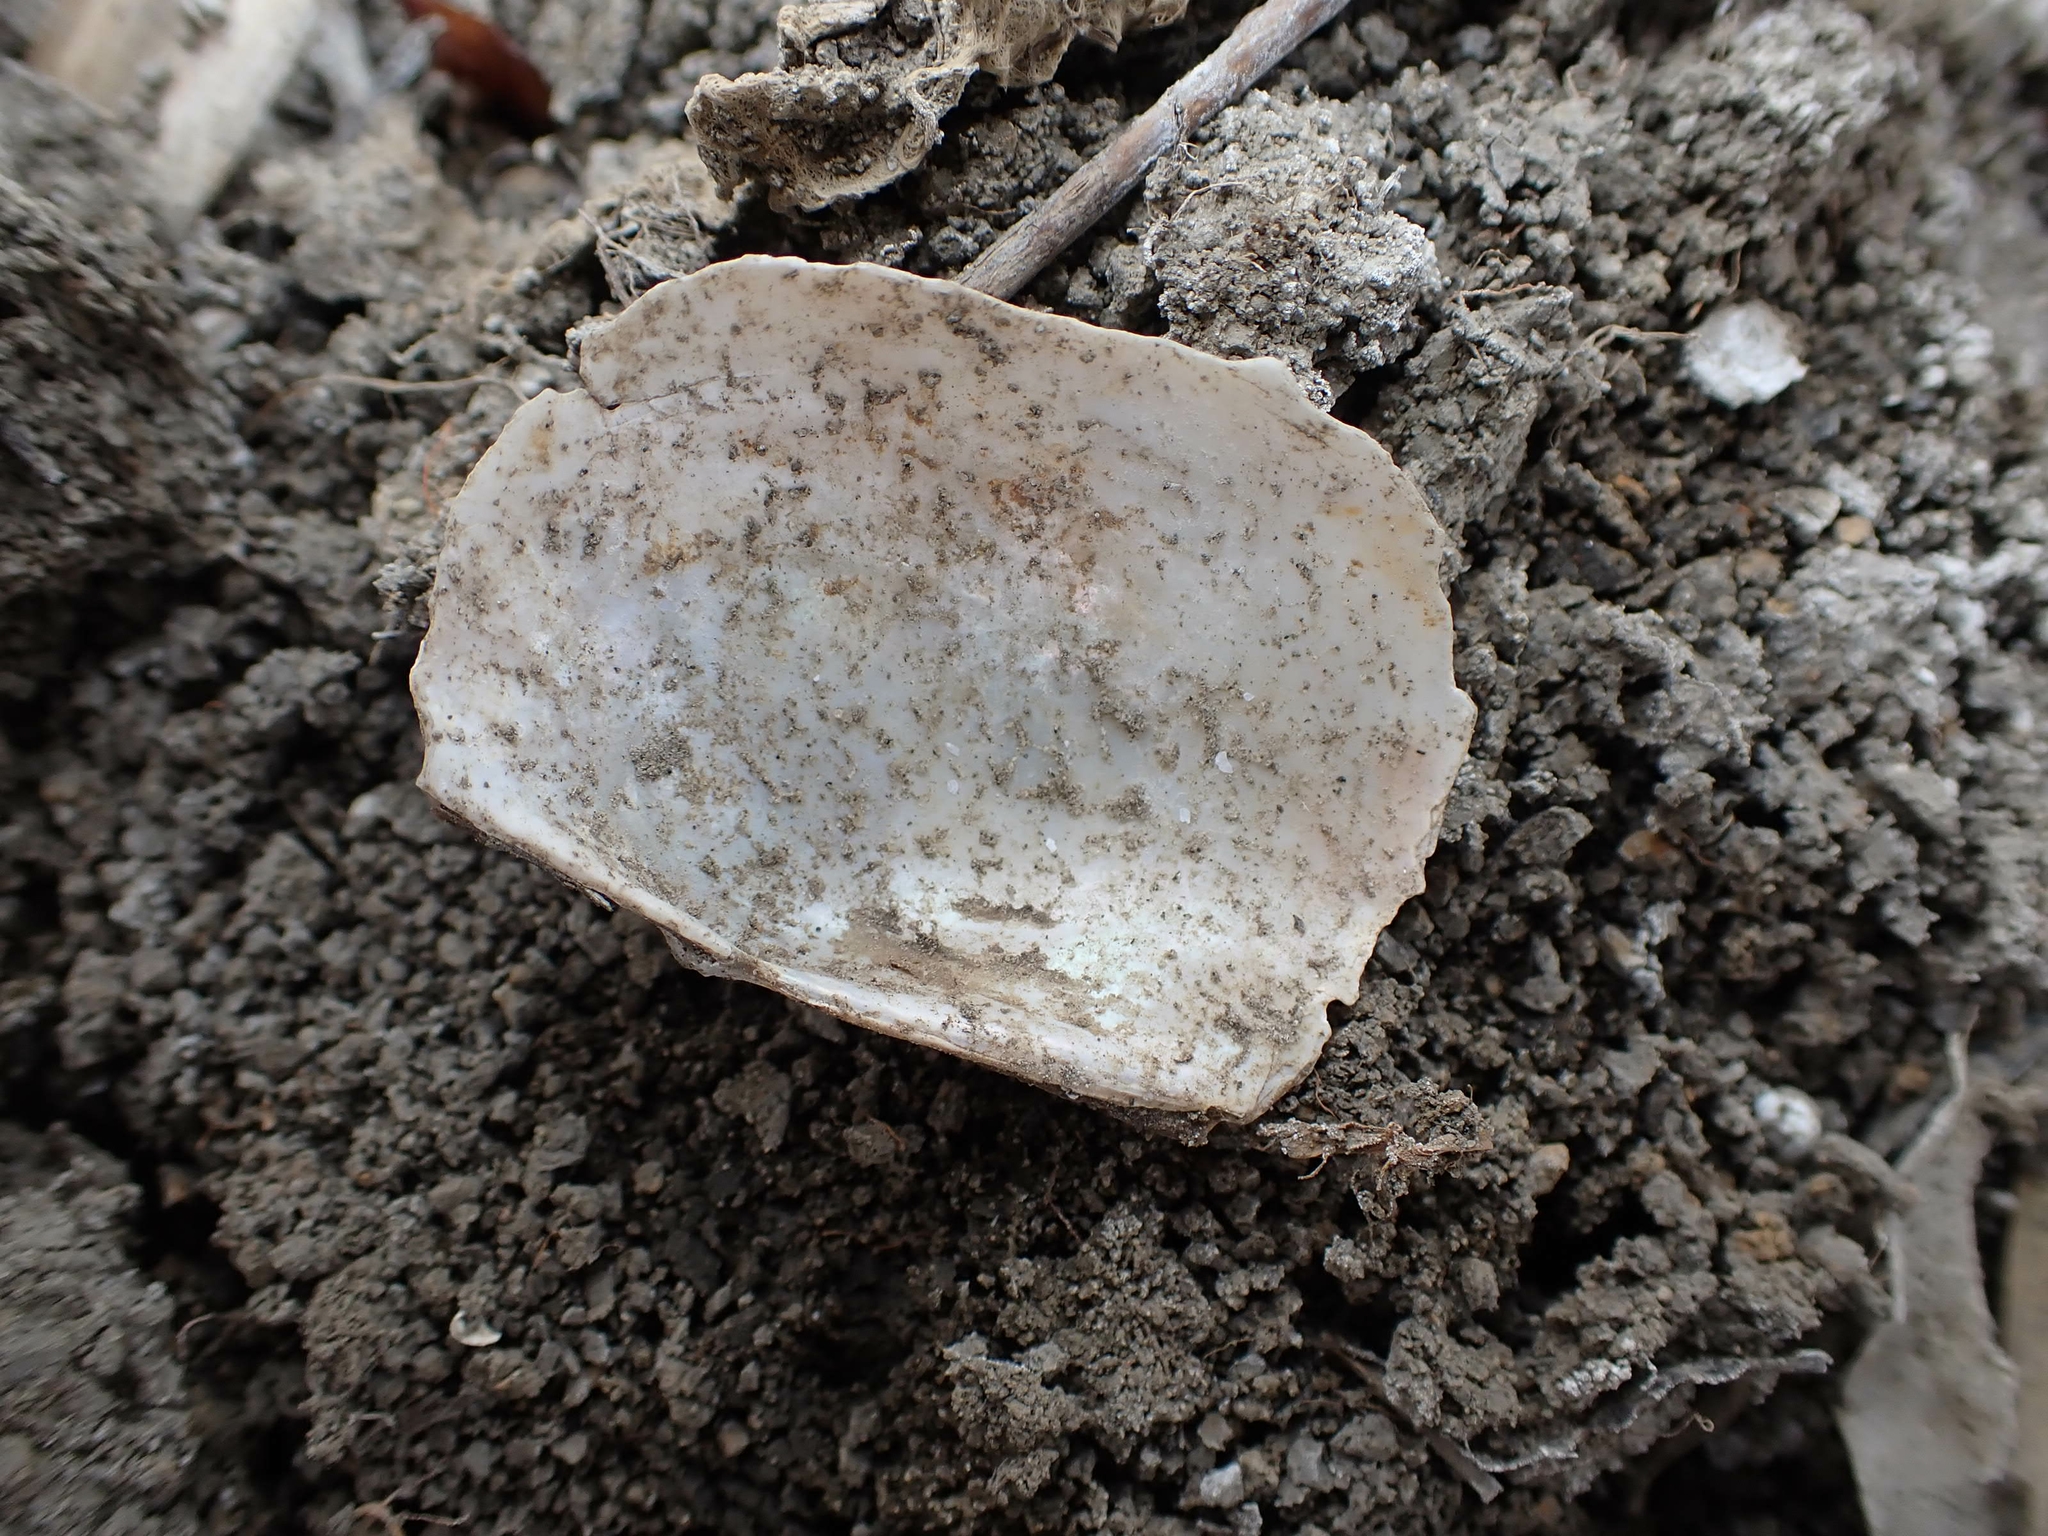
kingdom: Animalia
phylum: Mollusca
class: Bivalvia
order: Unionida
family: Unionidae
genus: Pyganodon
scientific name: Pyganodon grandis
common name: Giant floater
